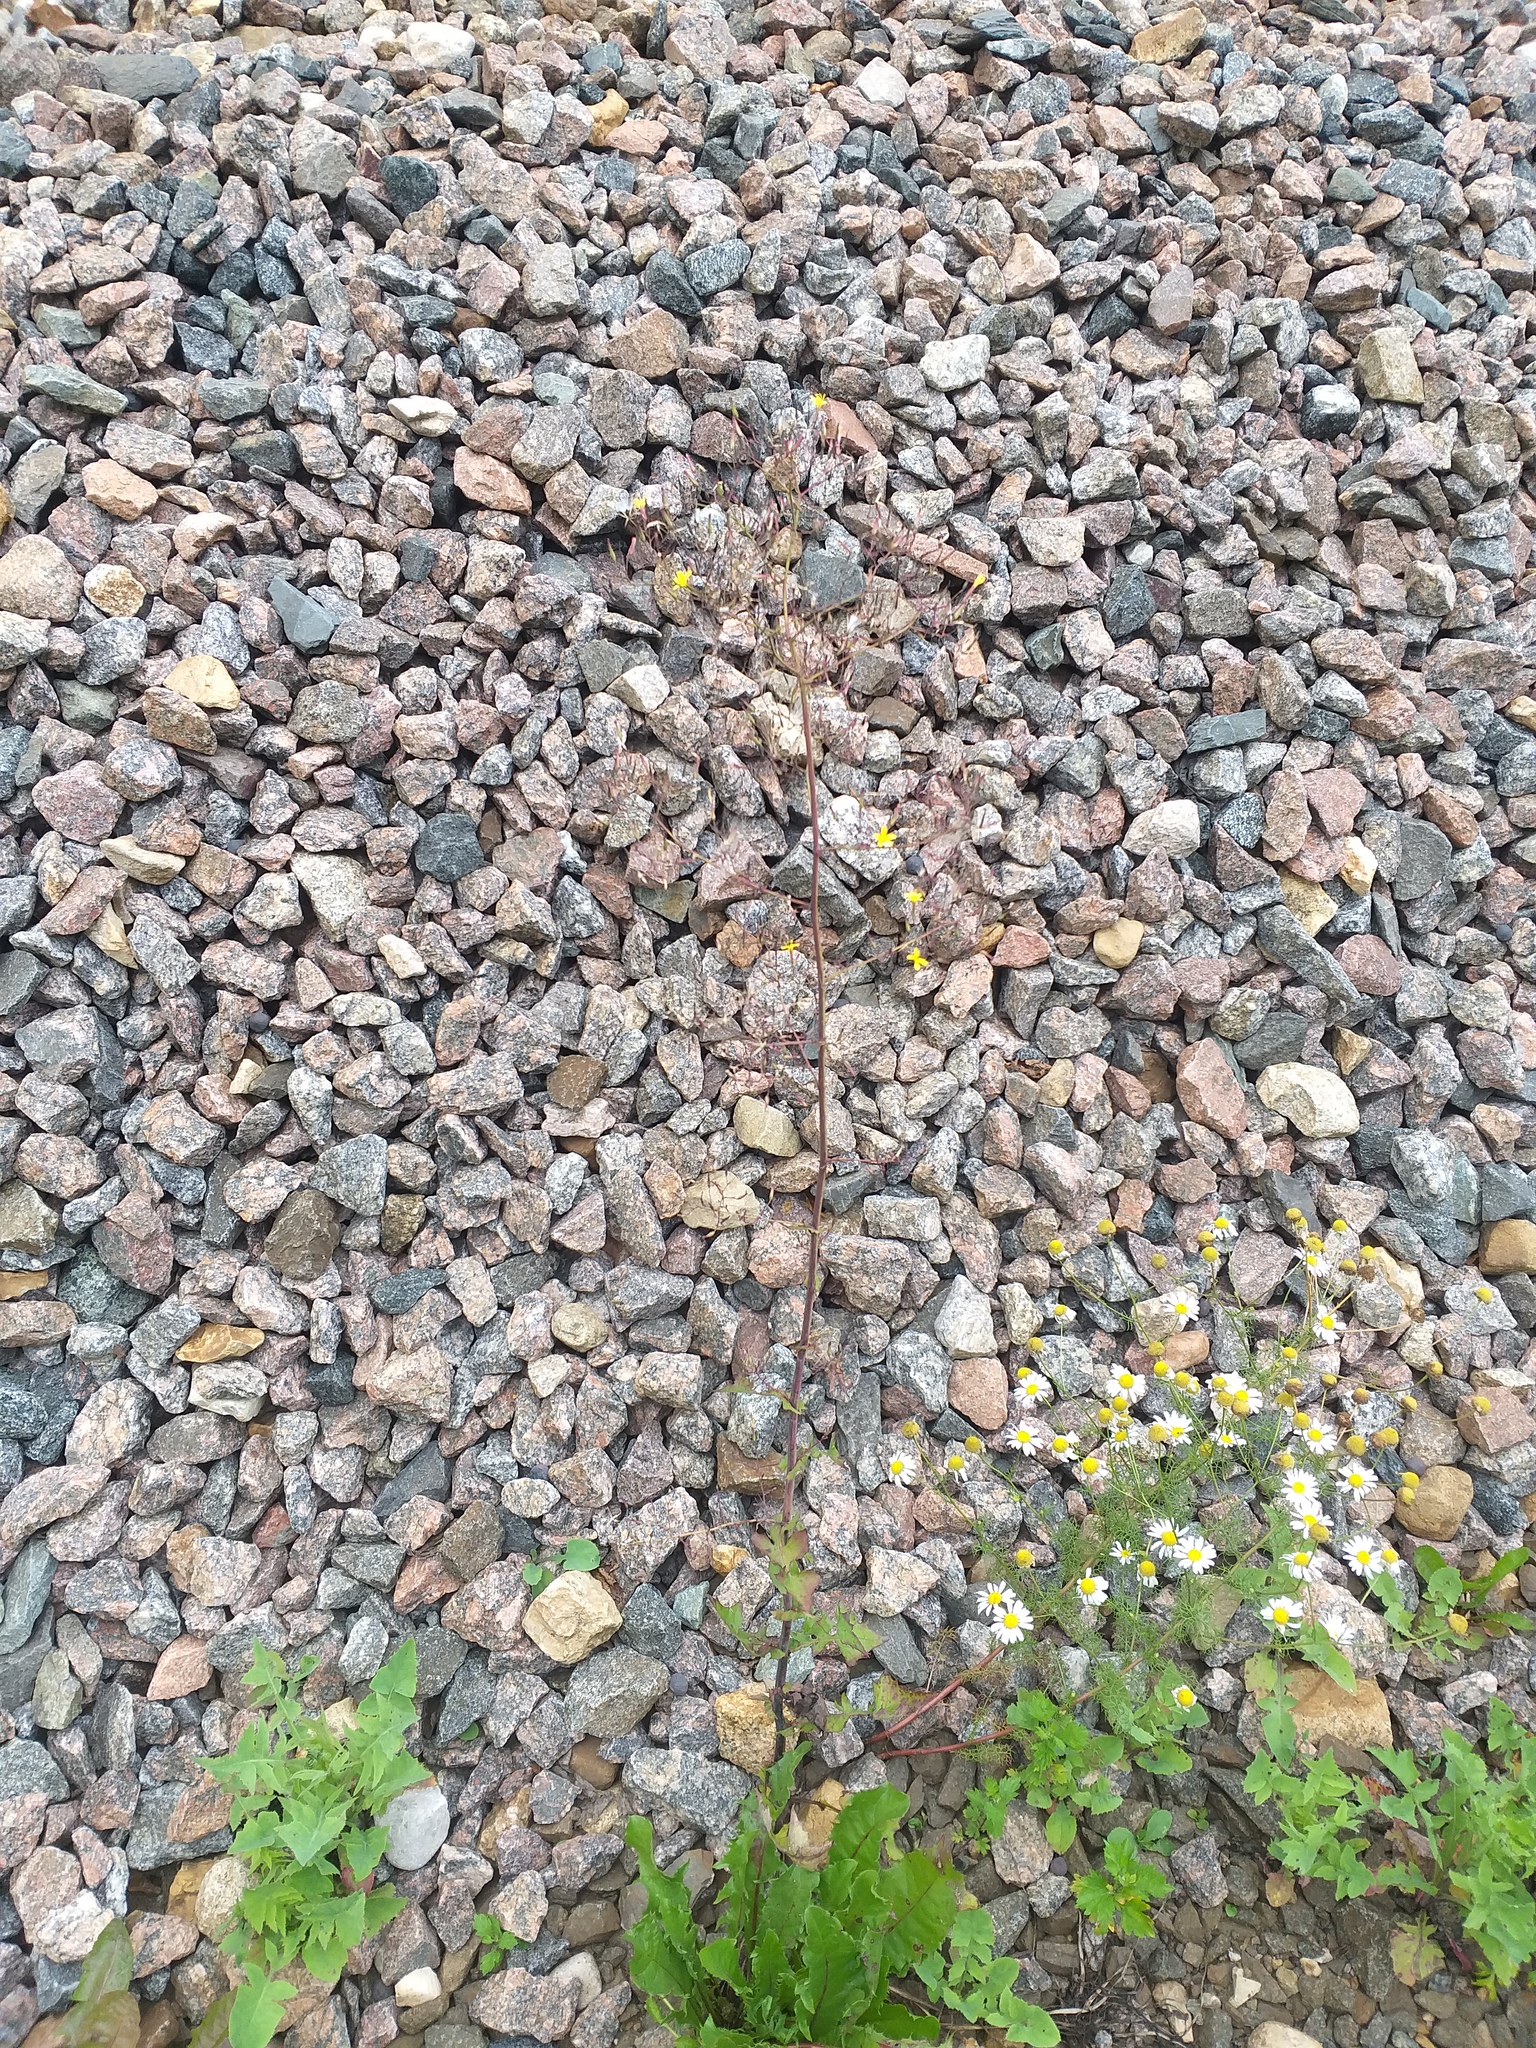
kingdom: Plantae
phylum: Tracheophyta
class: Magnoliopsida
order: Asterales
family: Asteraceae
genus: Mycelis
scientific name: Mycelis muralis
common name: Wall lettuce
